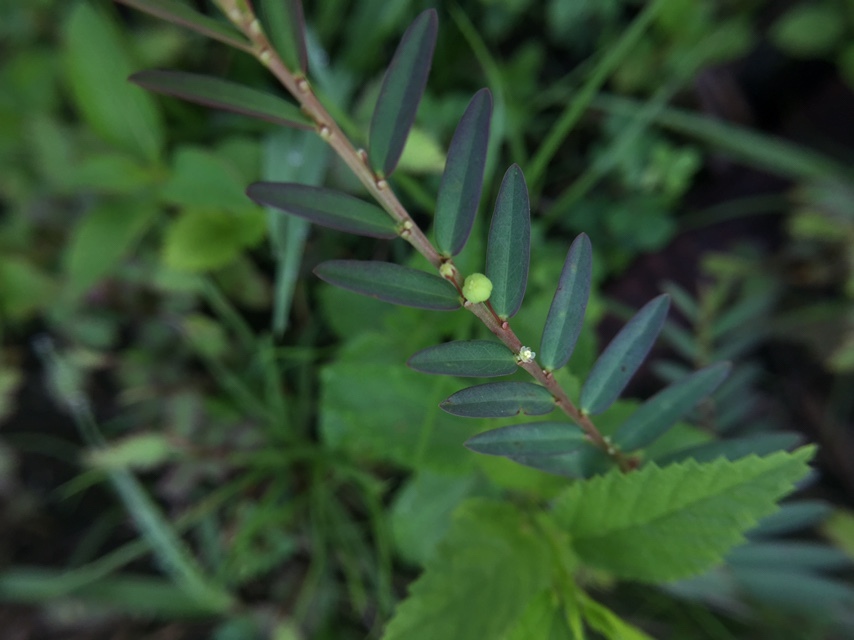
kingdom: Plantae
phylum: Tracheophyta
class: Magnoliopsida
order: Malpighiales
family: Phyllanthaceae
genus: Phyllanthus
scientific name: Phyllanthus virgatus
